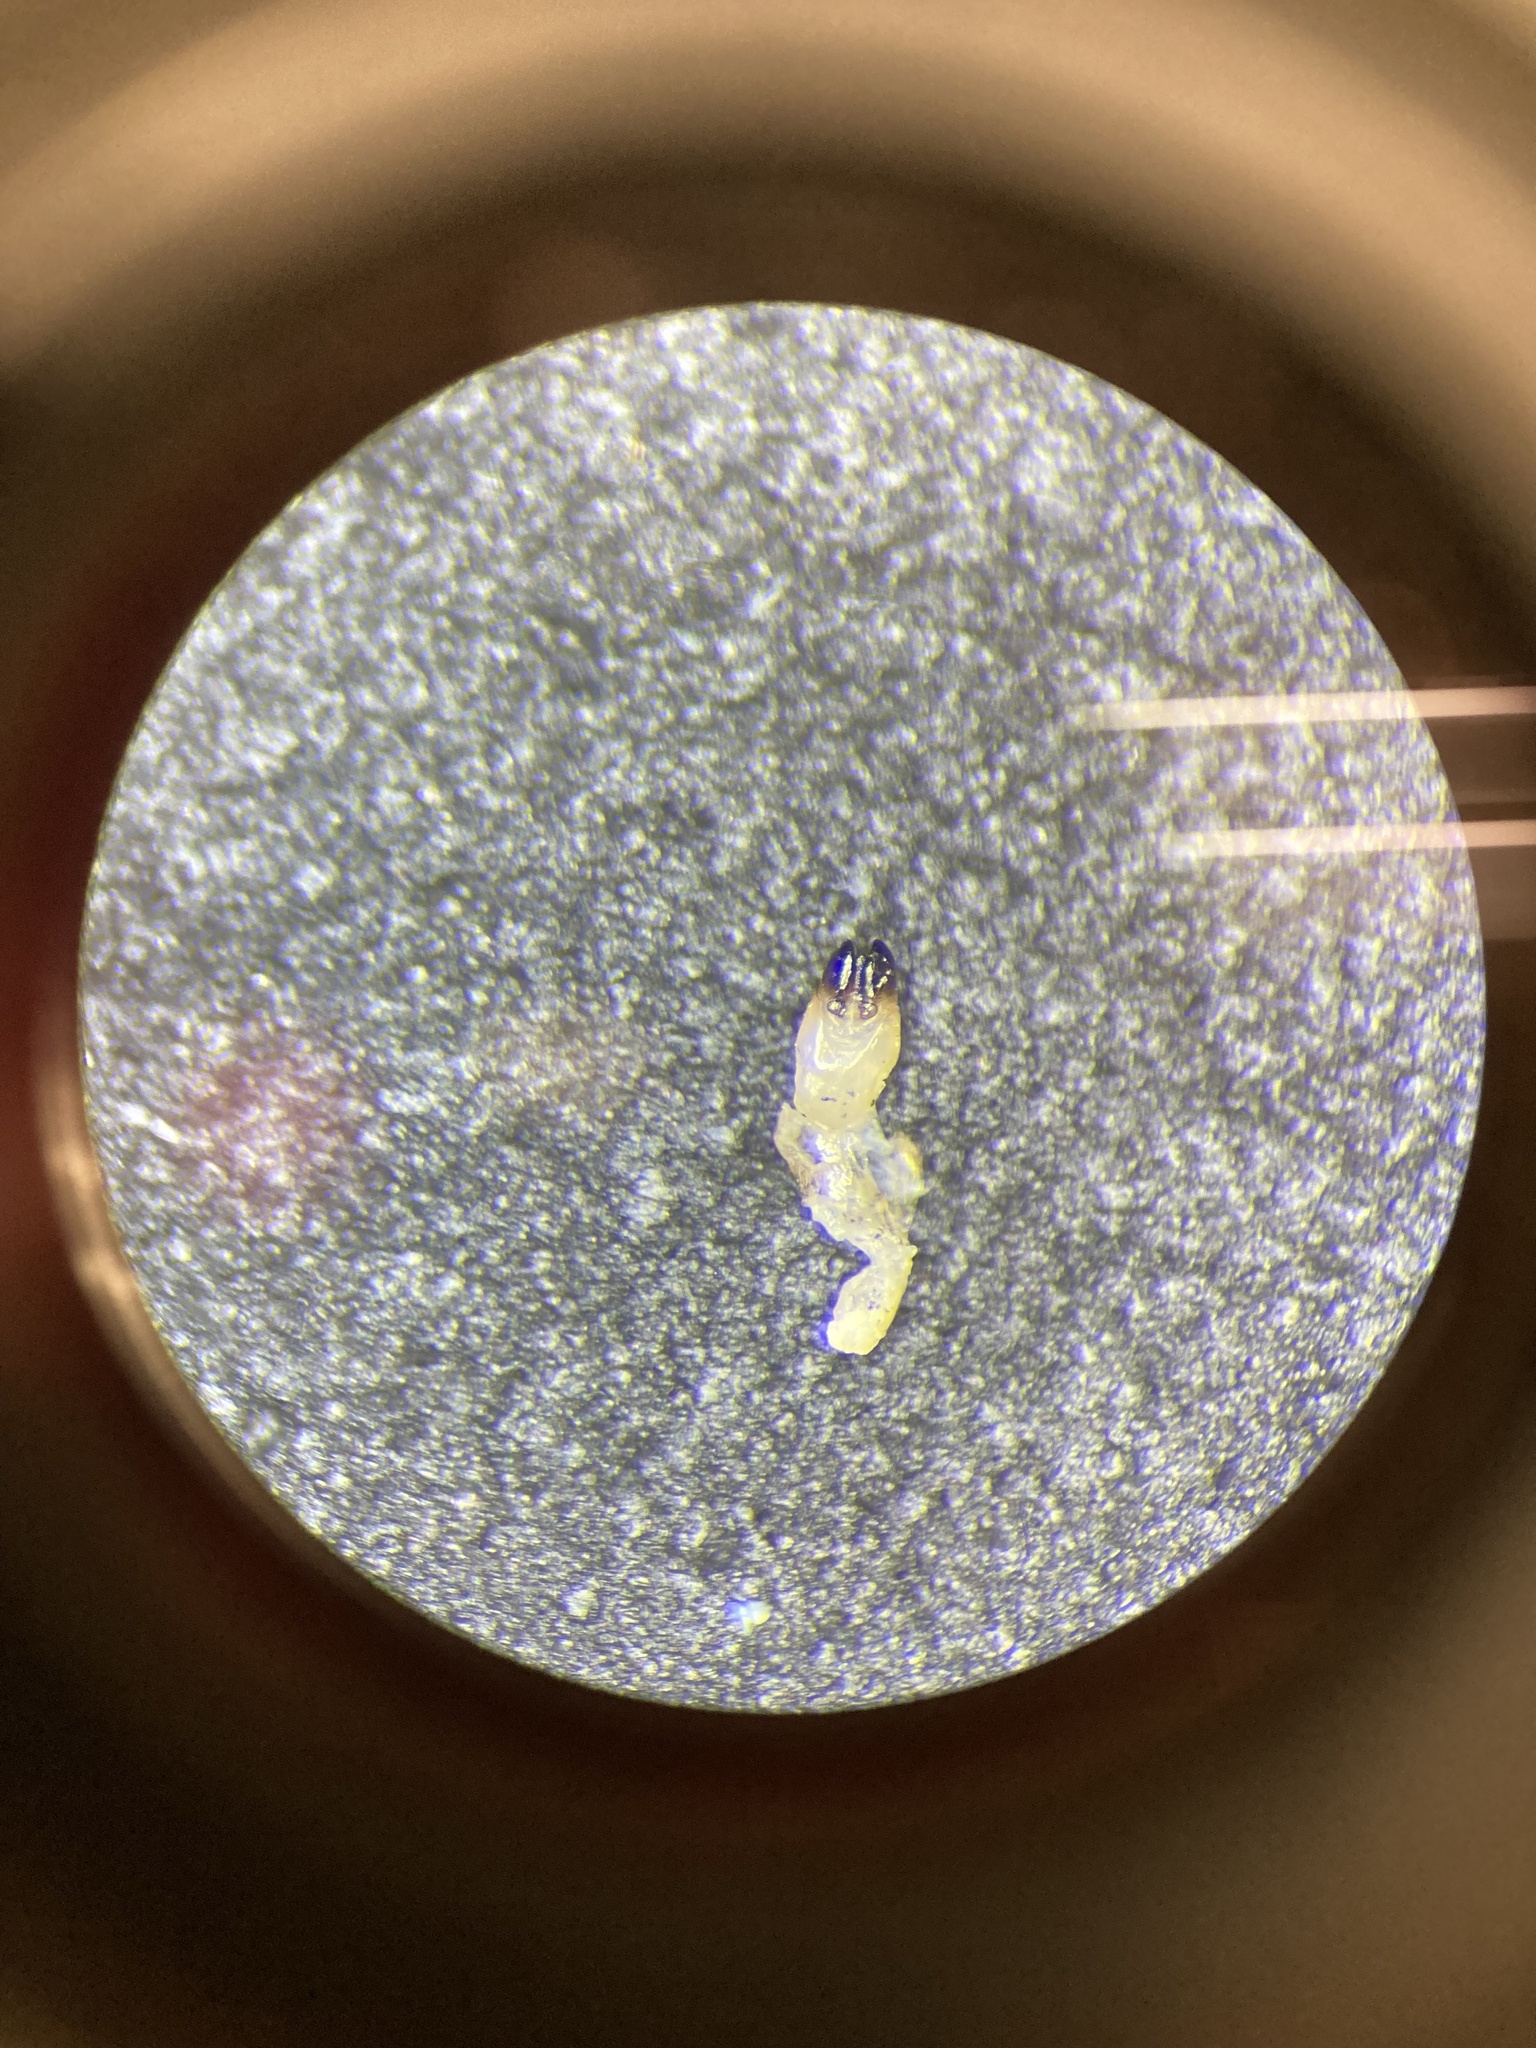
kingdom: Animalia
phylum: Arthropoda
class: Insecta
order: Coleoptera
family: Lampyridae
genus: Photinus
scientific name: Photinus macdermotti
